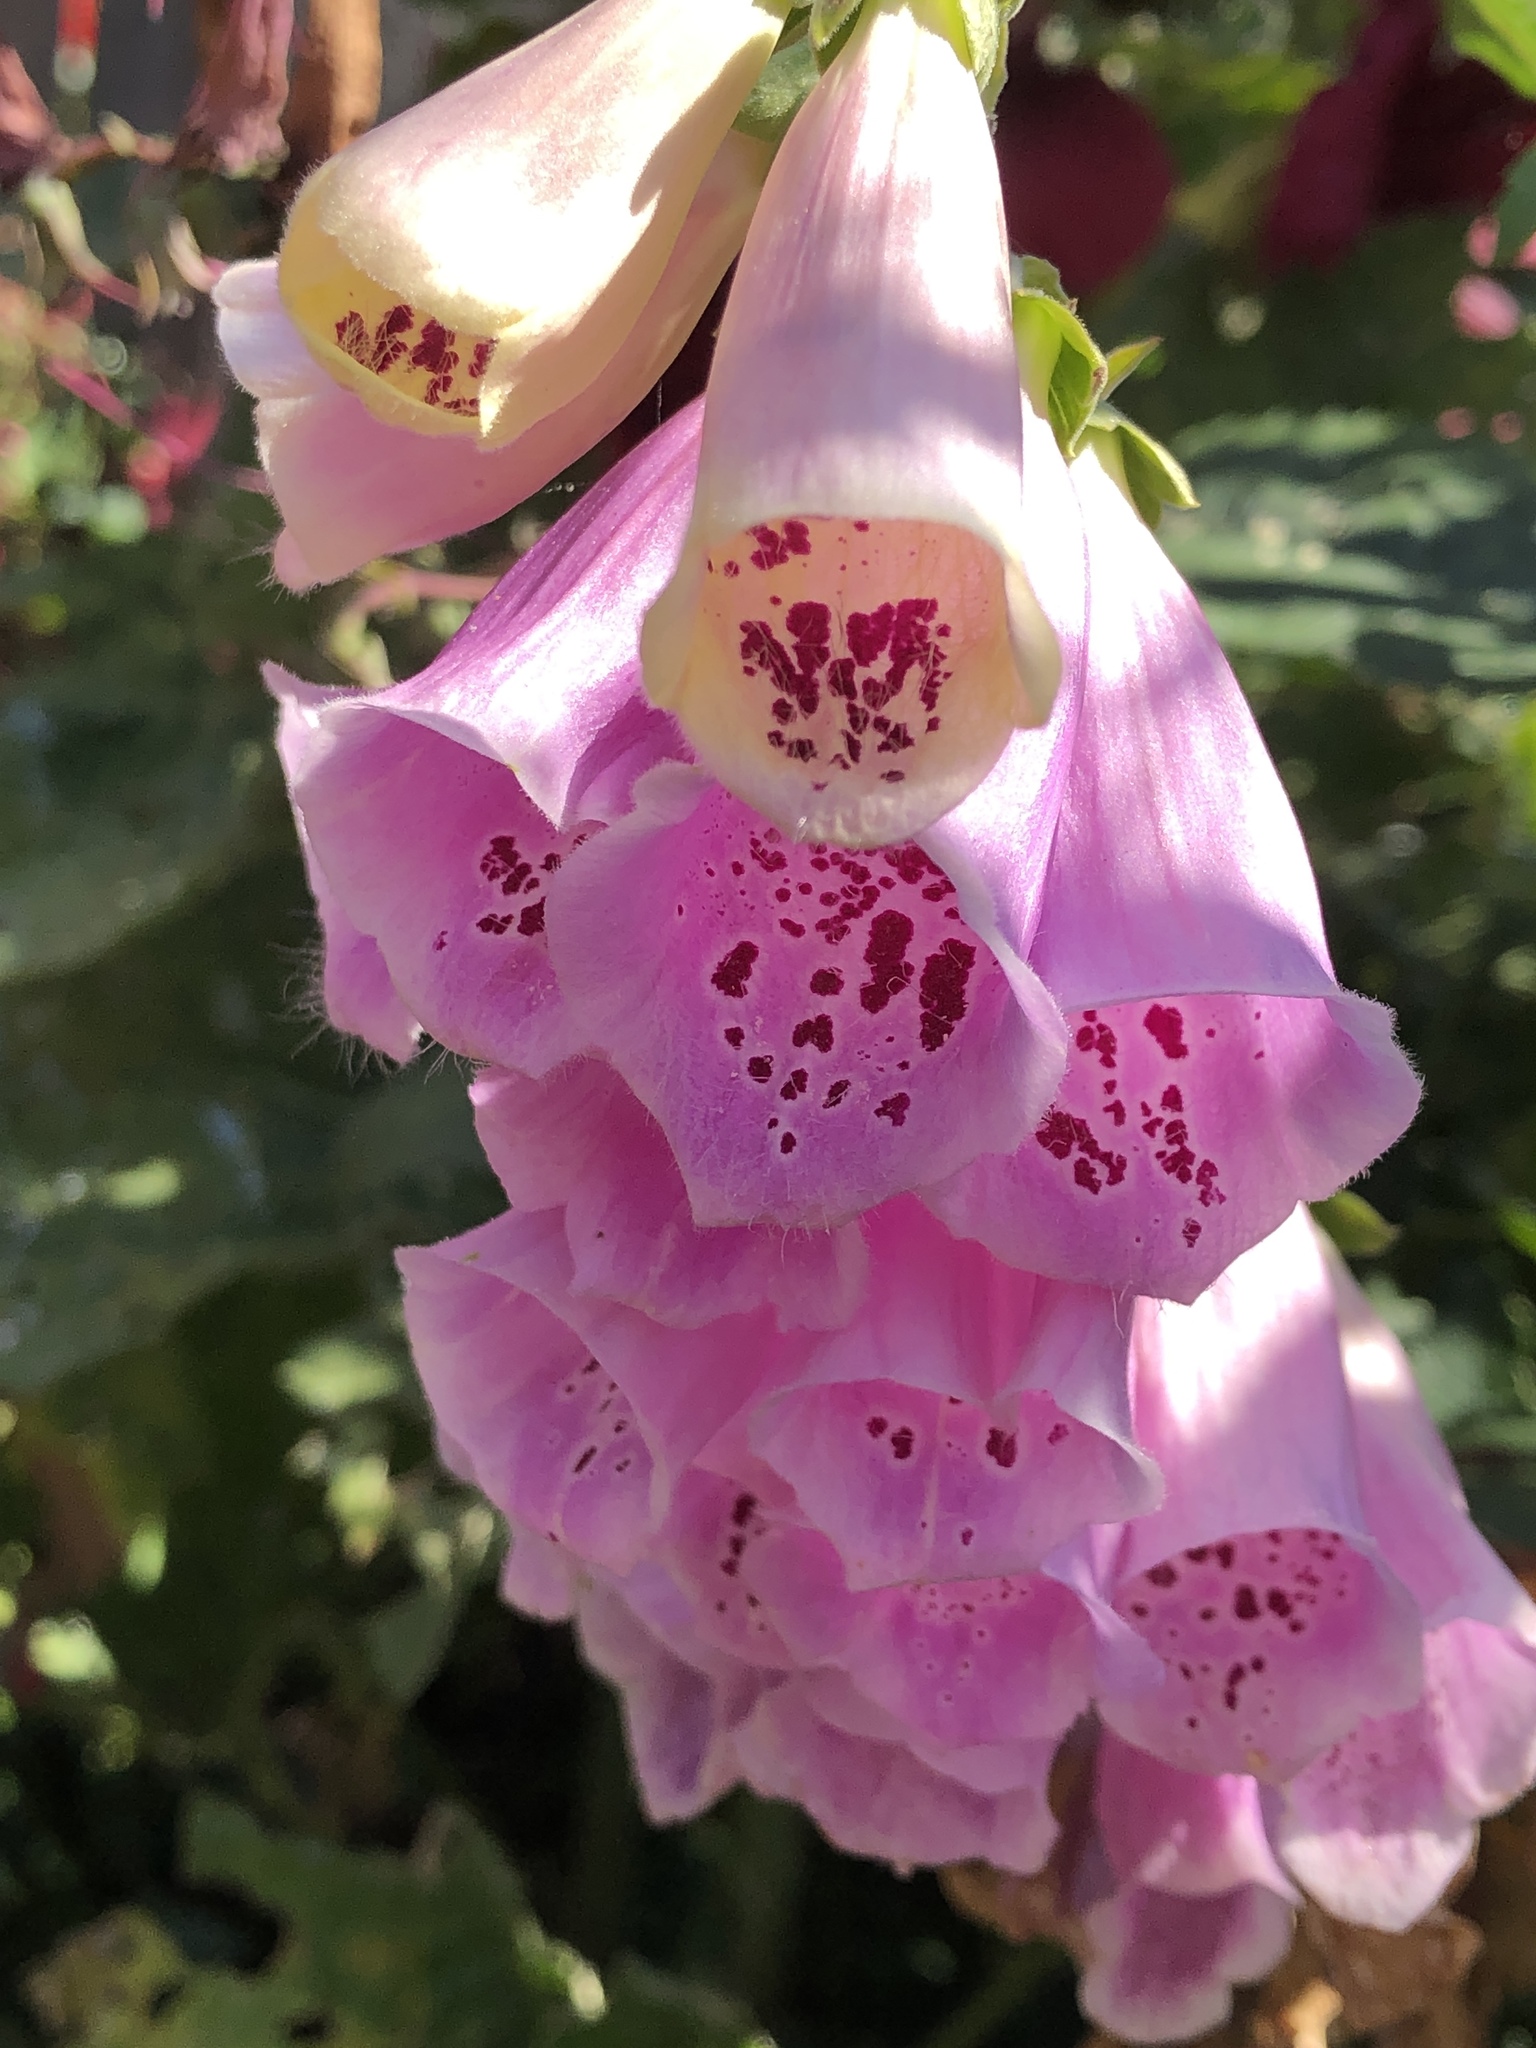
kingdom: Plantae
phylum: Tracheophyta
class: Magnoliopsida
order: Lamiales
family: Plantaginaceae
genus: Digitalis
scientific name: Digitalis purpurea
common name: Foxglove
